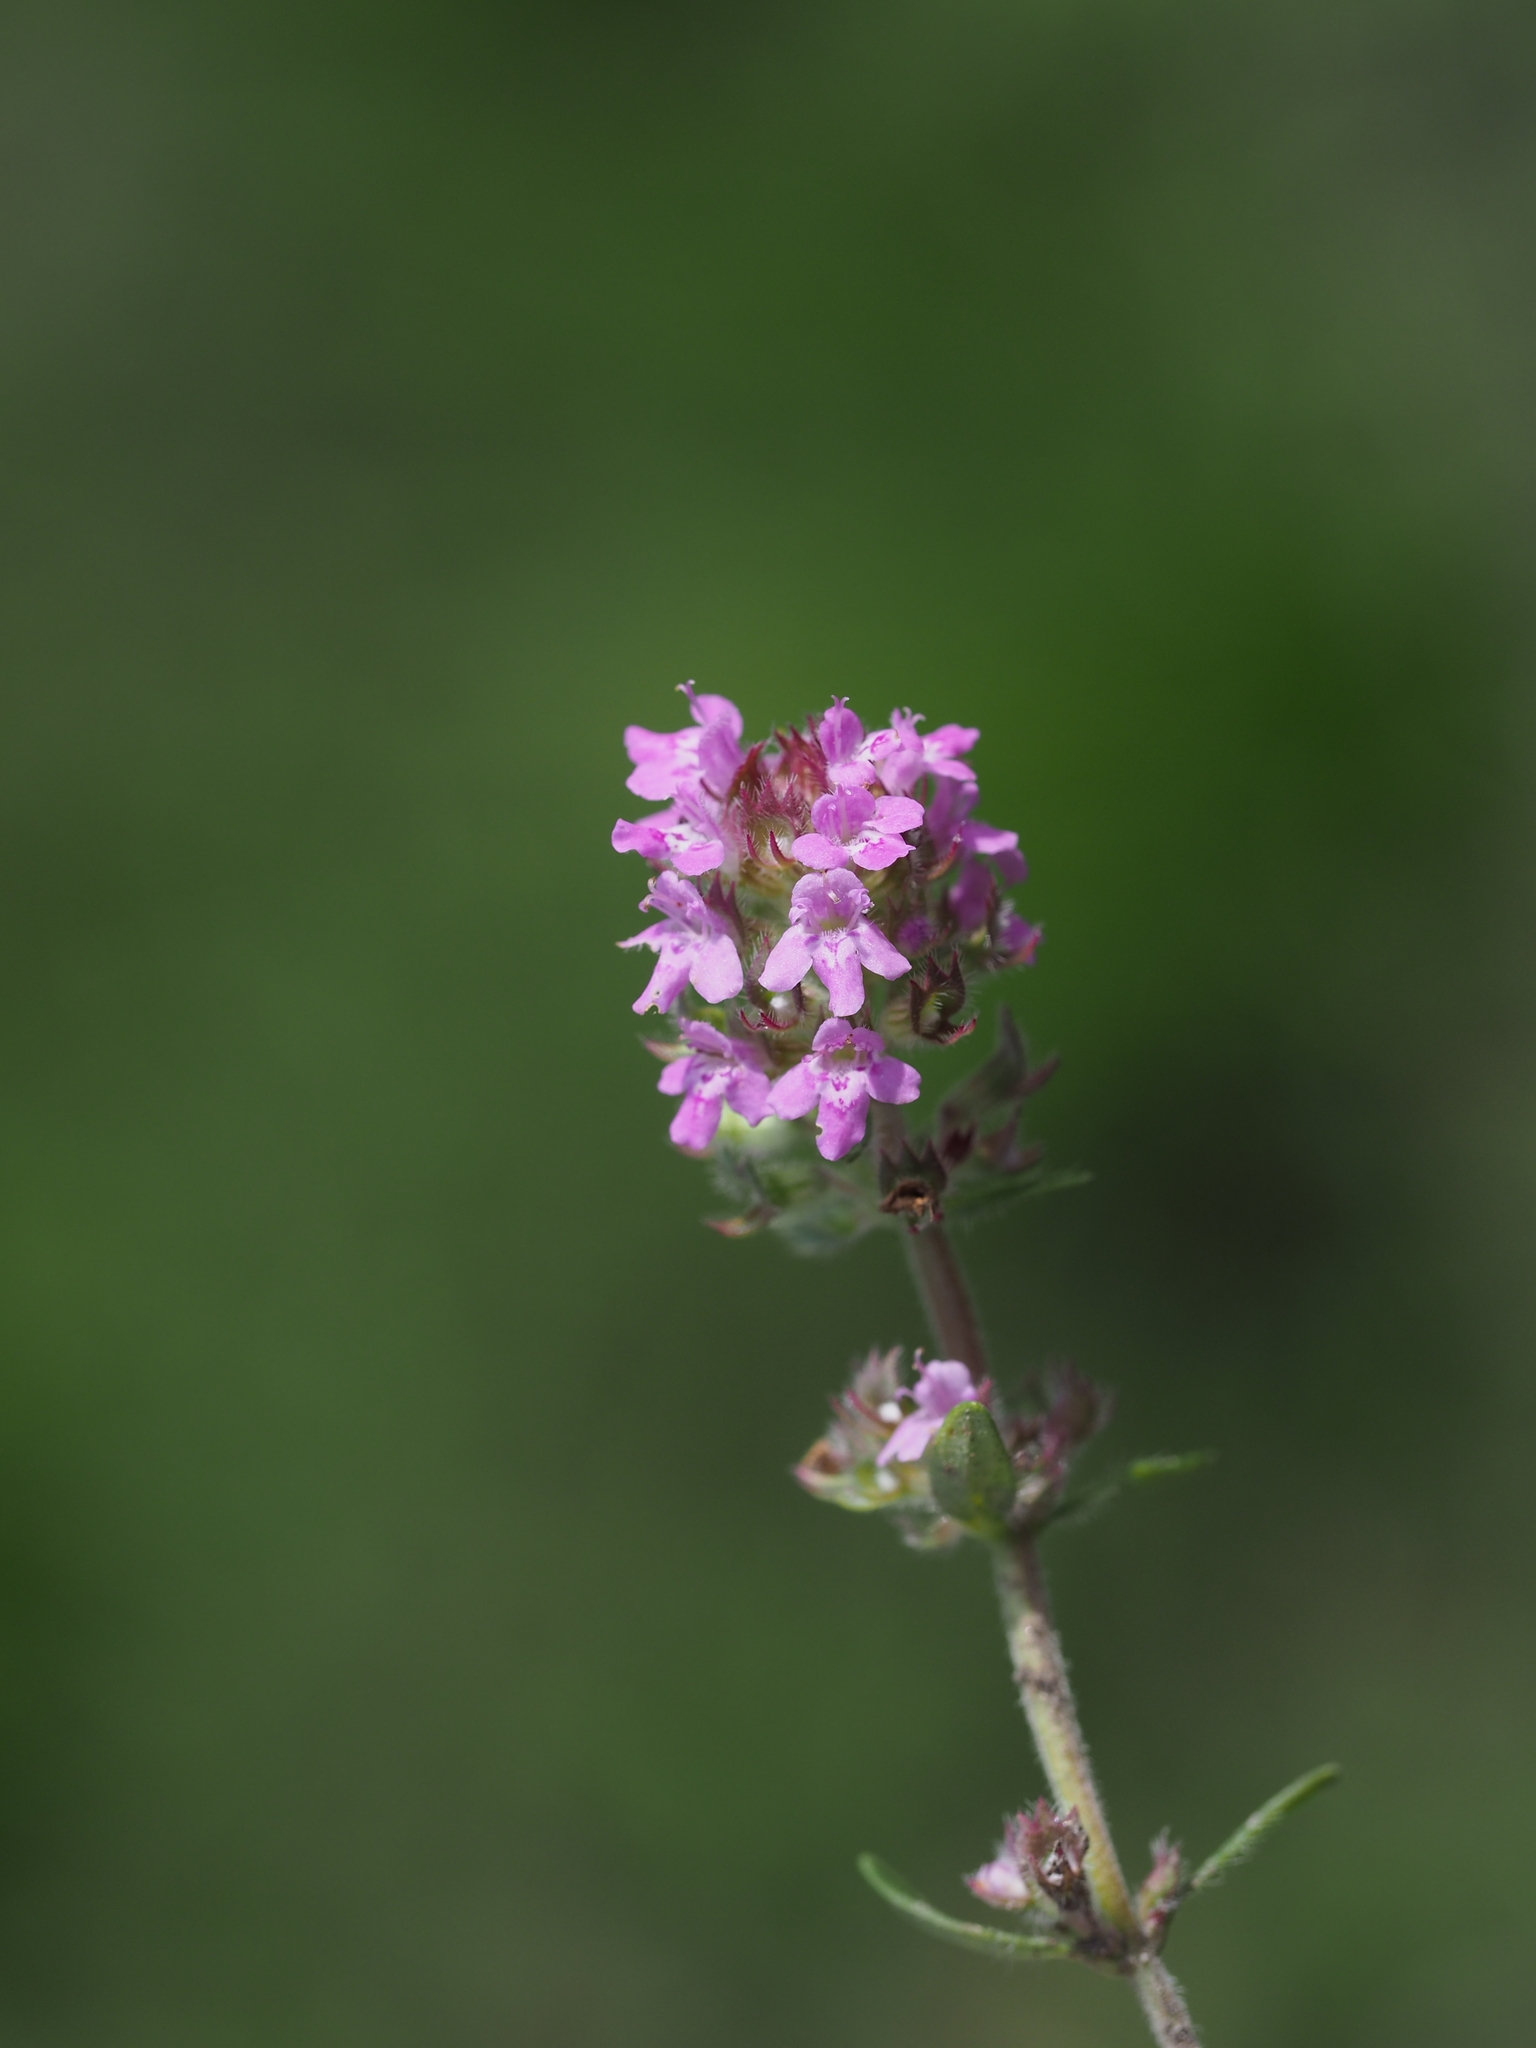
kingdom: Plantae
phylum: Tracheophyta
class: Magnoliopsida
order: Lamiales
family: Lamiaceae
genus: Thymus
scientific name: Thymus odoratissimus
